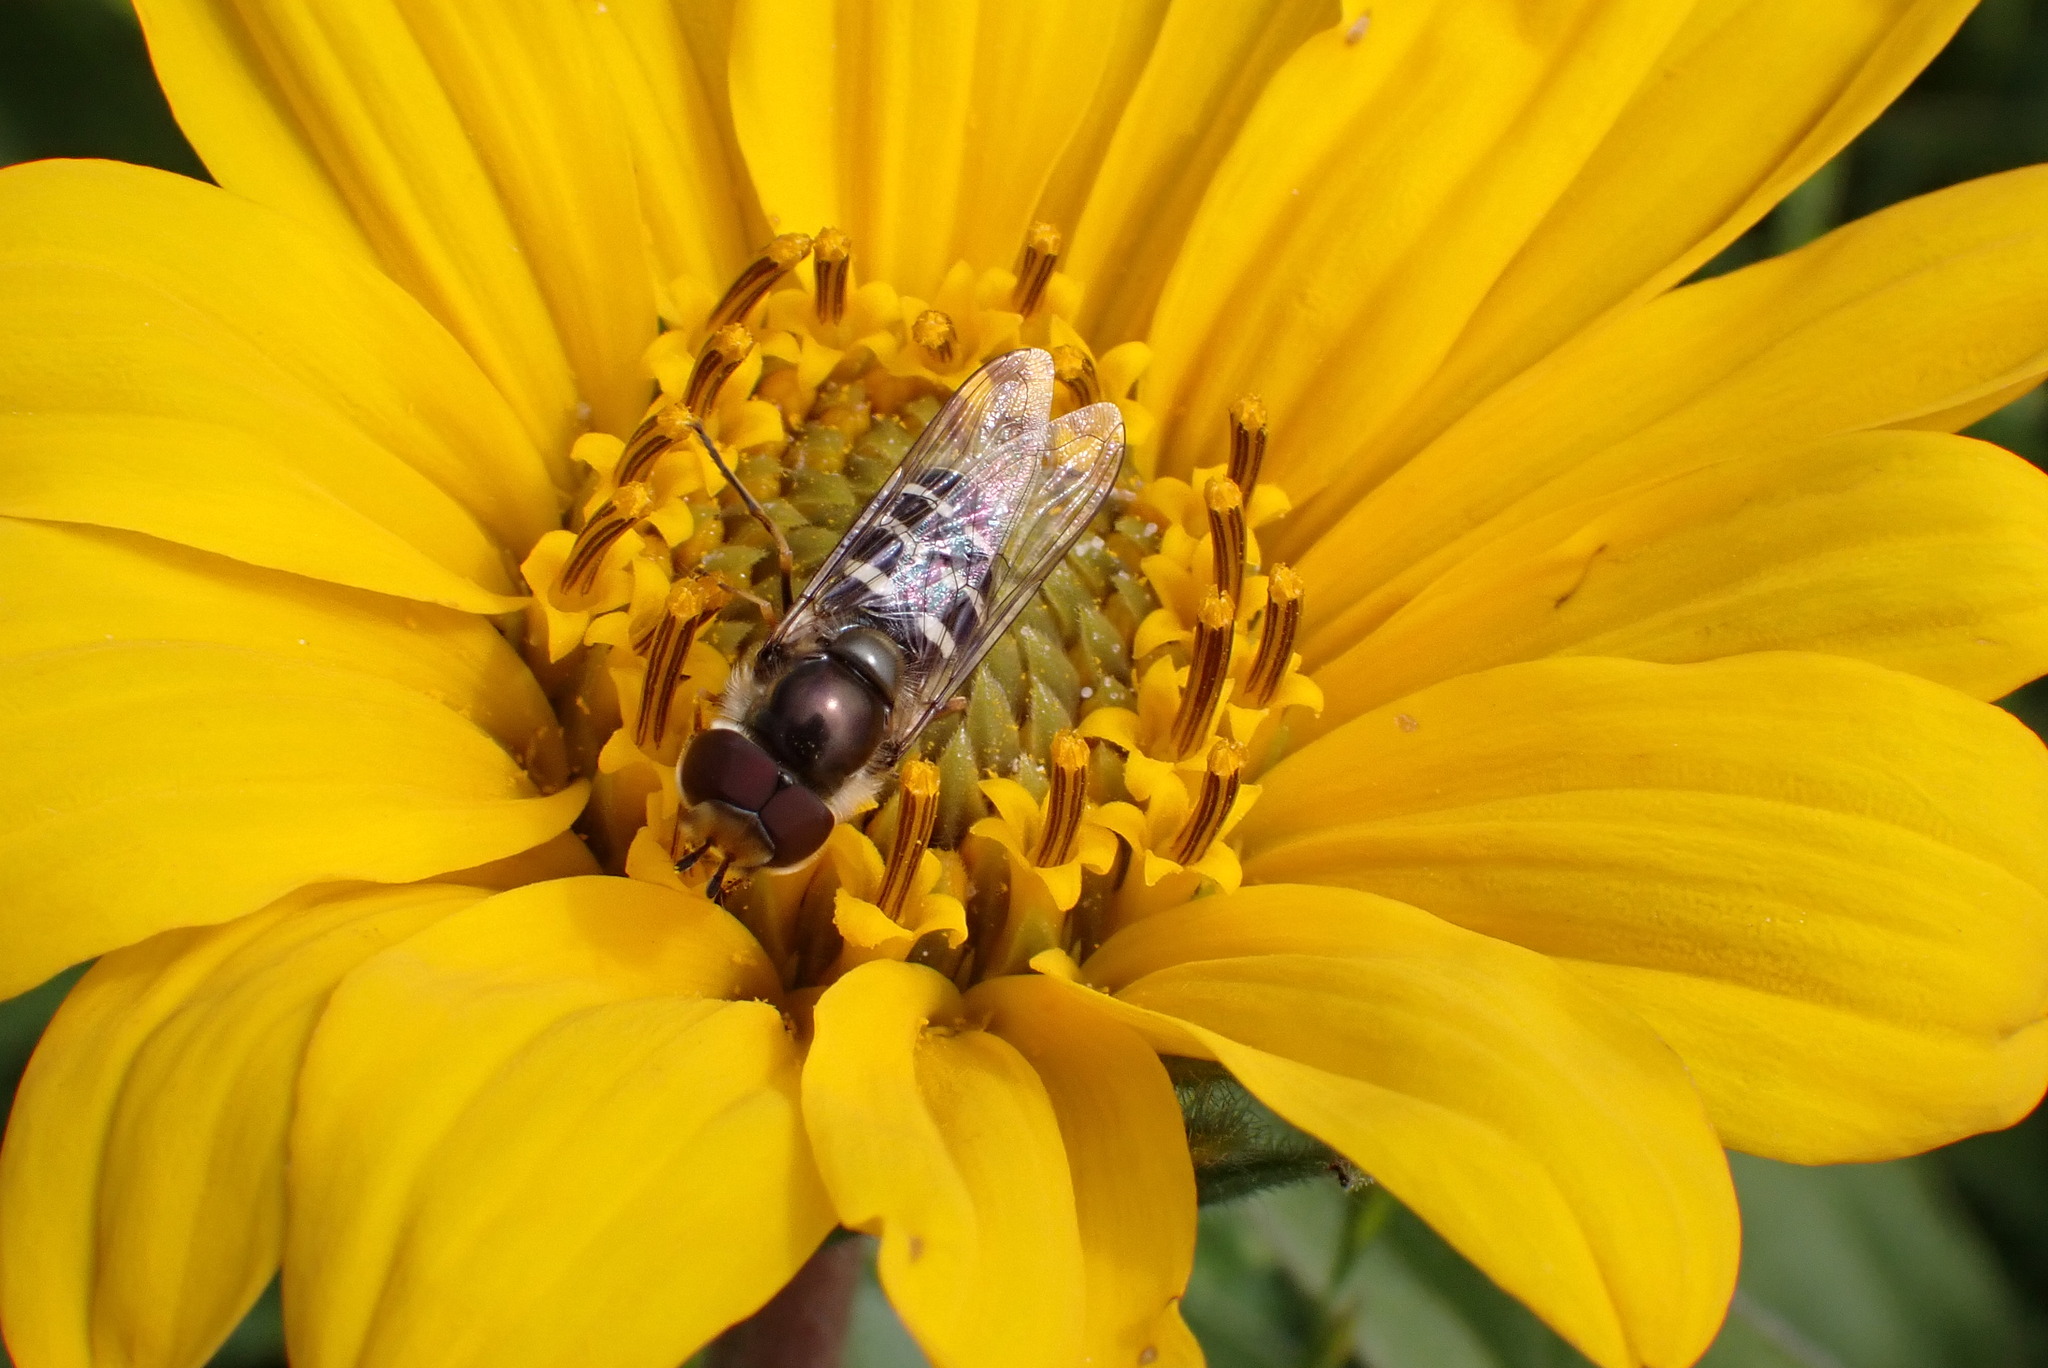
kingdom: Animalia
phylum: Arthropoda
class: Insecta
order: Diptera
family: Syrphidae
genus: Scaeva
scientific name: Scaeva affinis
